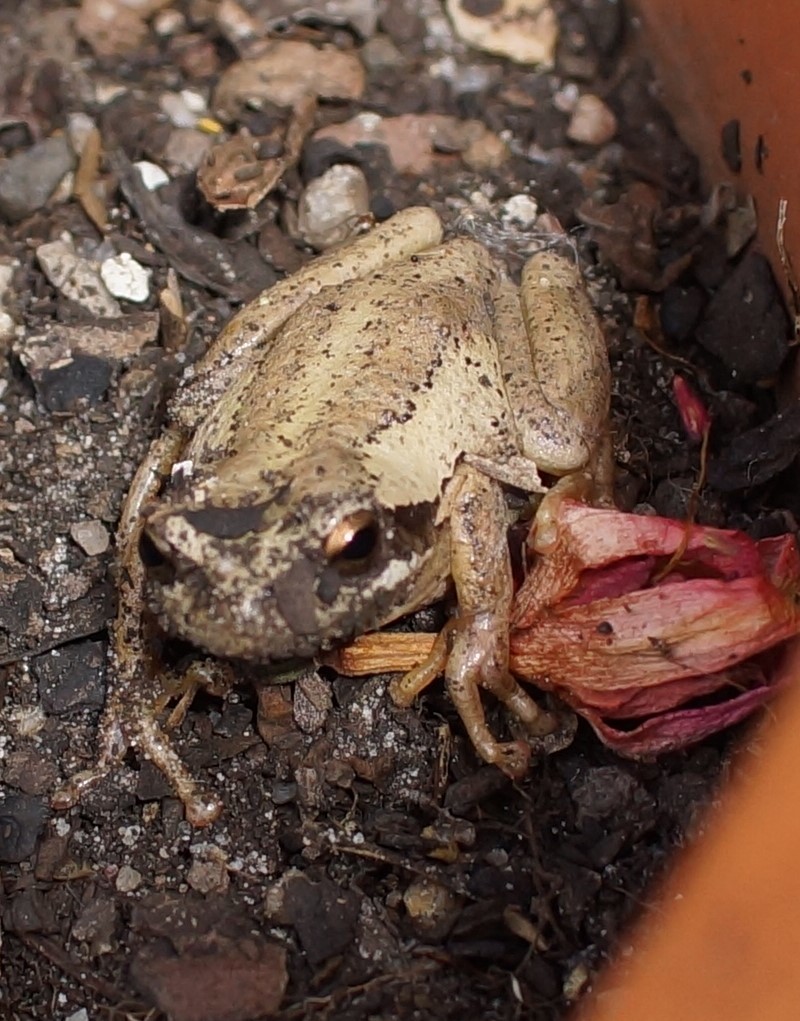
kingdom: Animalia
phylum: Chordata
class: Amphibia
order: Anura
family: Pelodryadidae
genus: Litoria
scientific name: Litoria ewingii
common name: Southern brown tree frog
